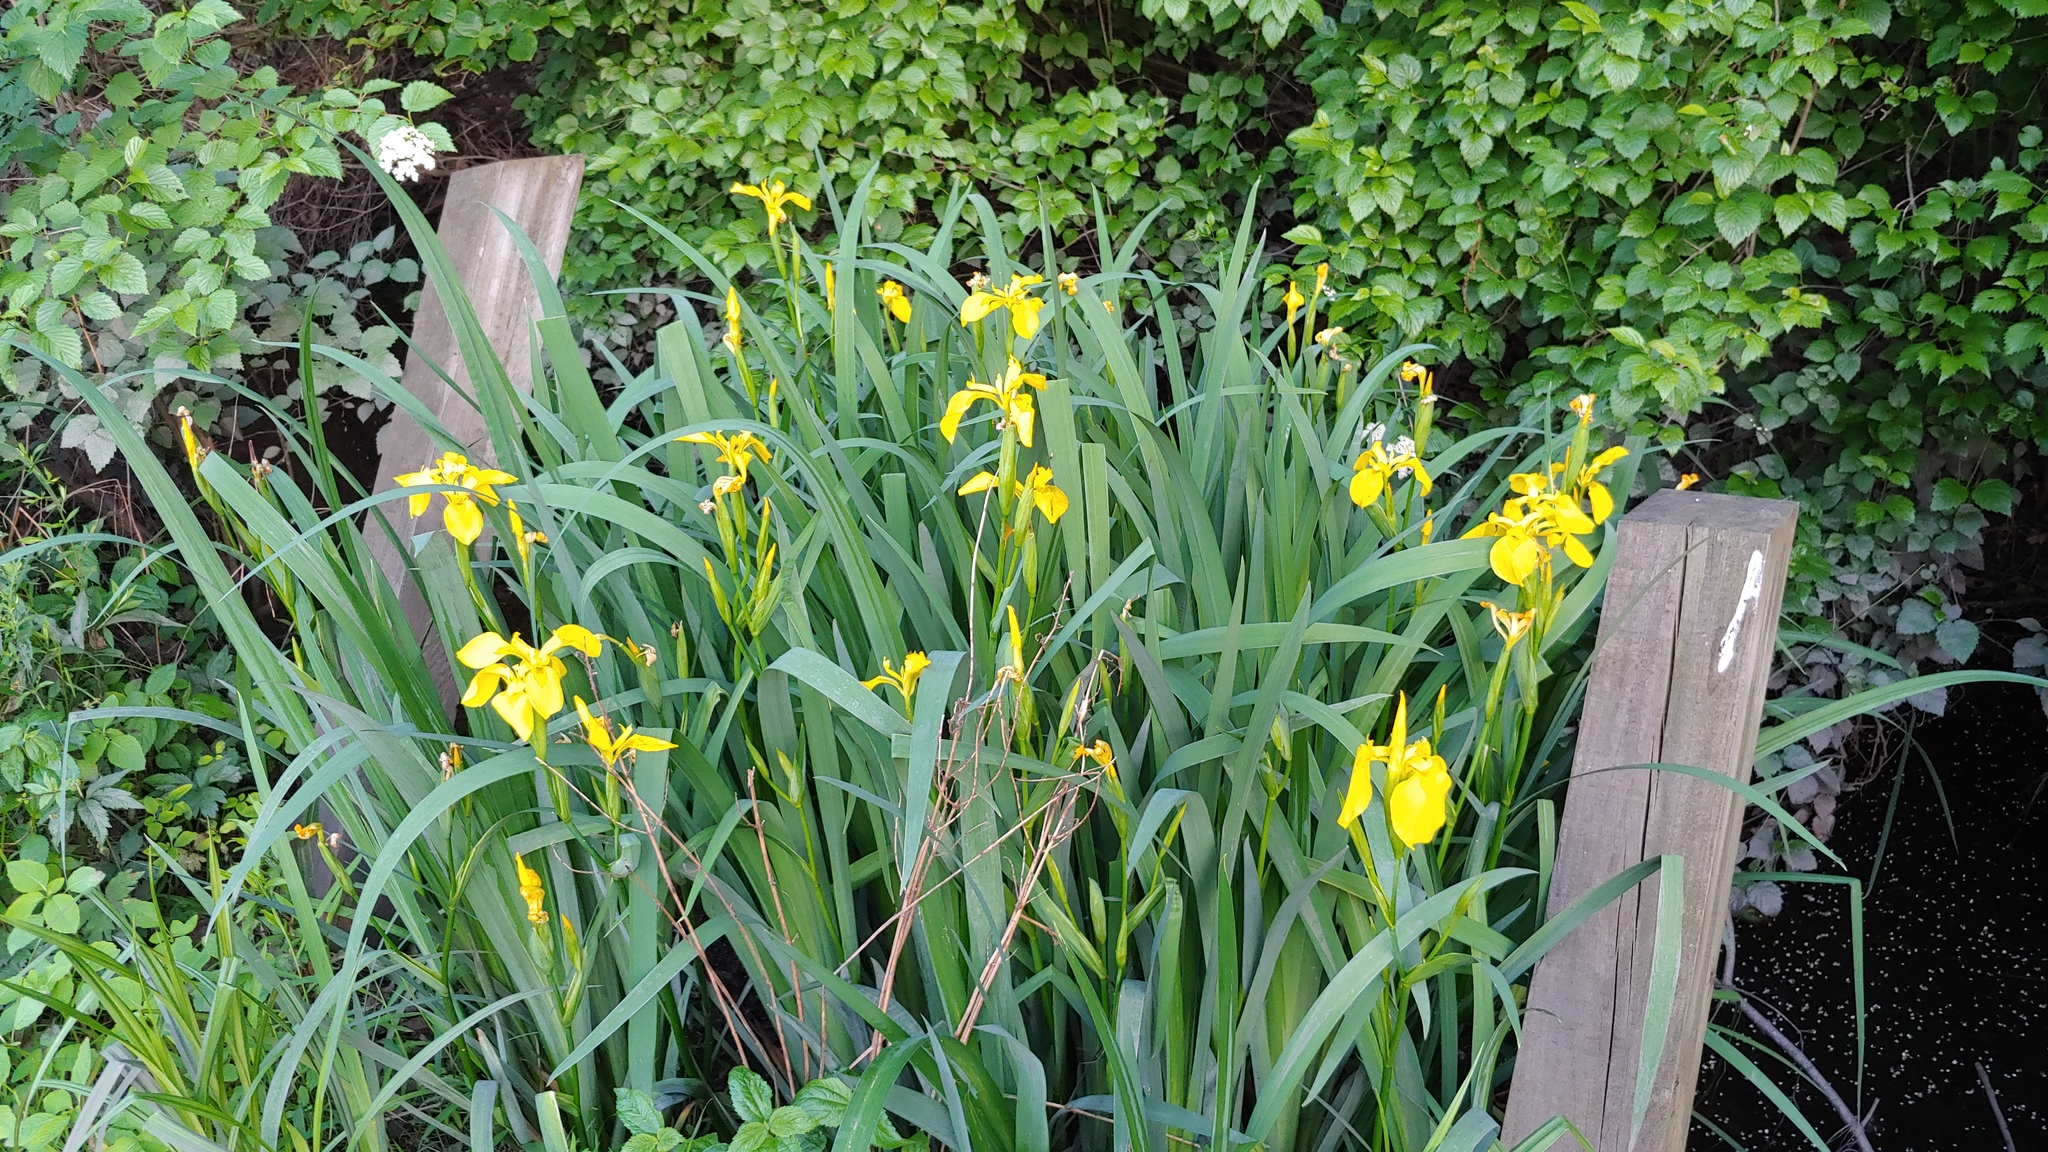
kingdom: Plantae
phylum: Tracheophyta
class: Liliopsida
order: Asparagales
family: Iridaceae
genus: Iris
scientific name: Iris pseudacorus
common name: Yellow flag
